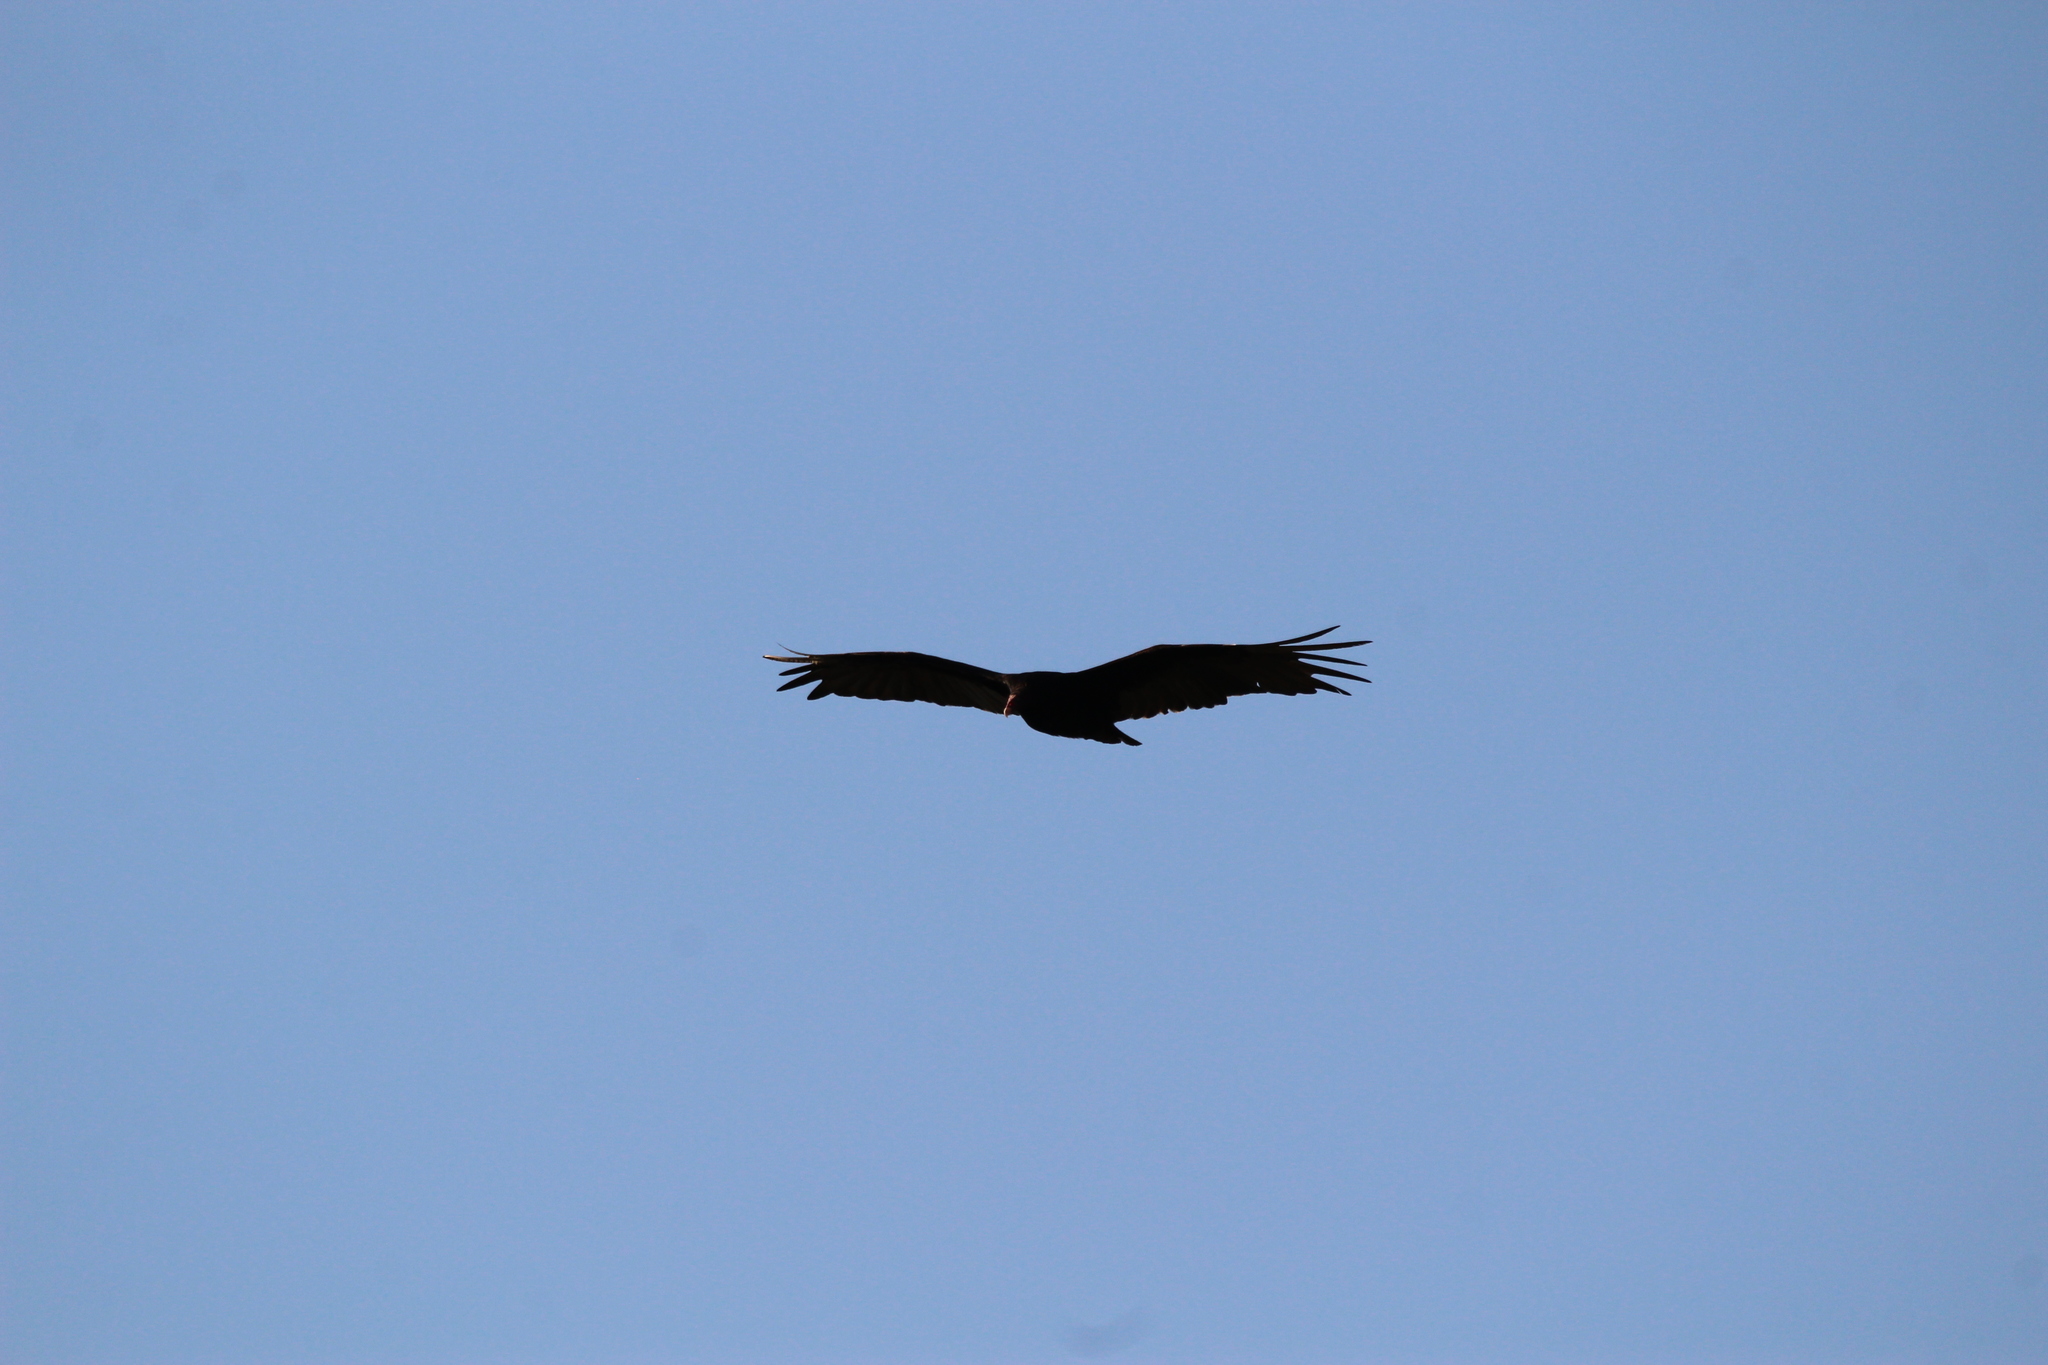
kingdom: Animalia
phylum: Chordata
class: Aves
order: Accipitriformes
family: Cathartidae
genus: Cathartes
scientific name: Cathartes aura
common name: Turkey vulture
